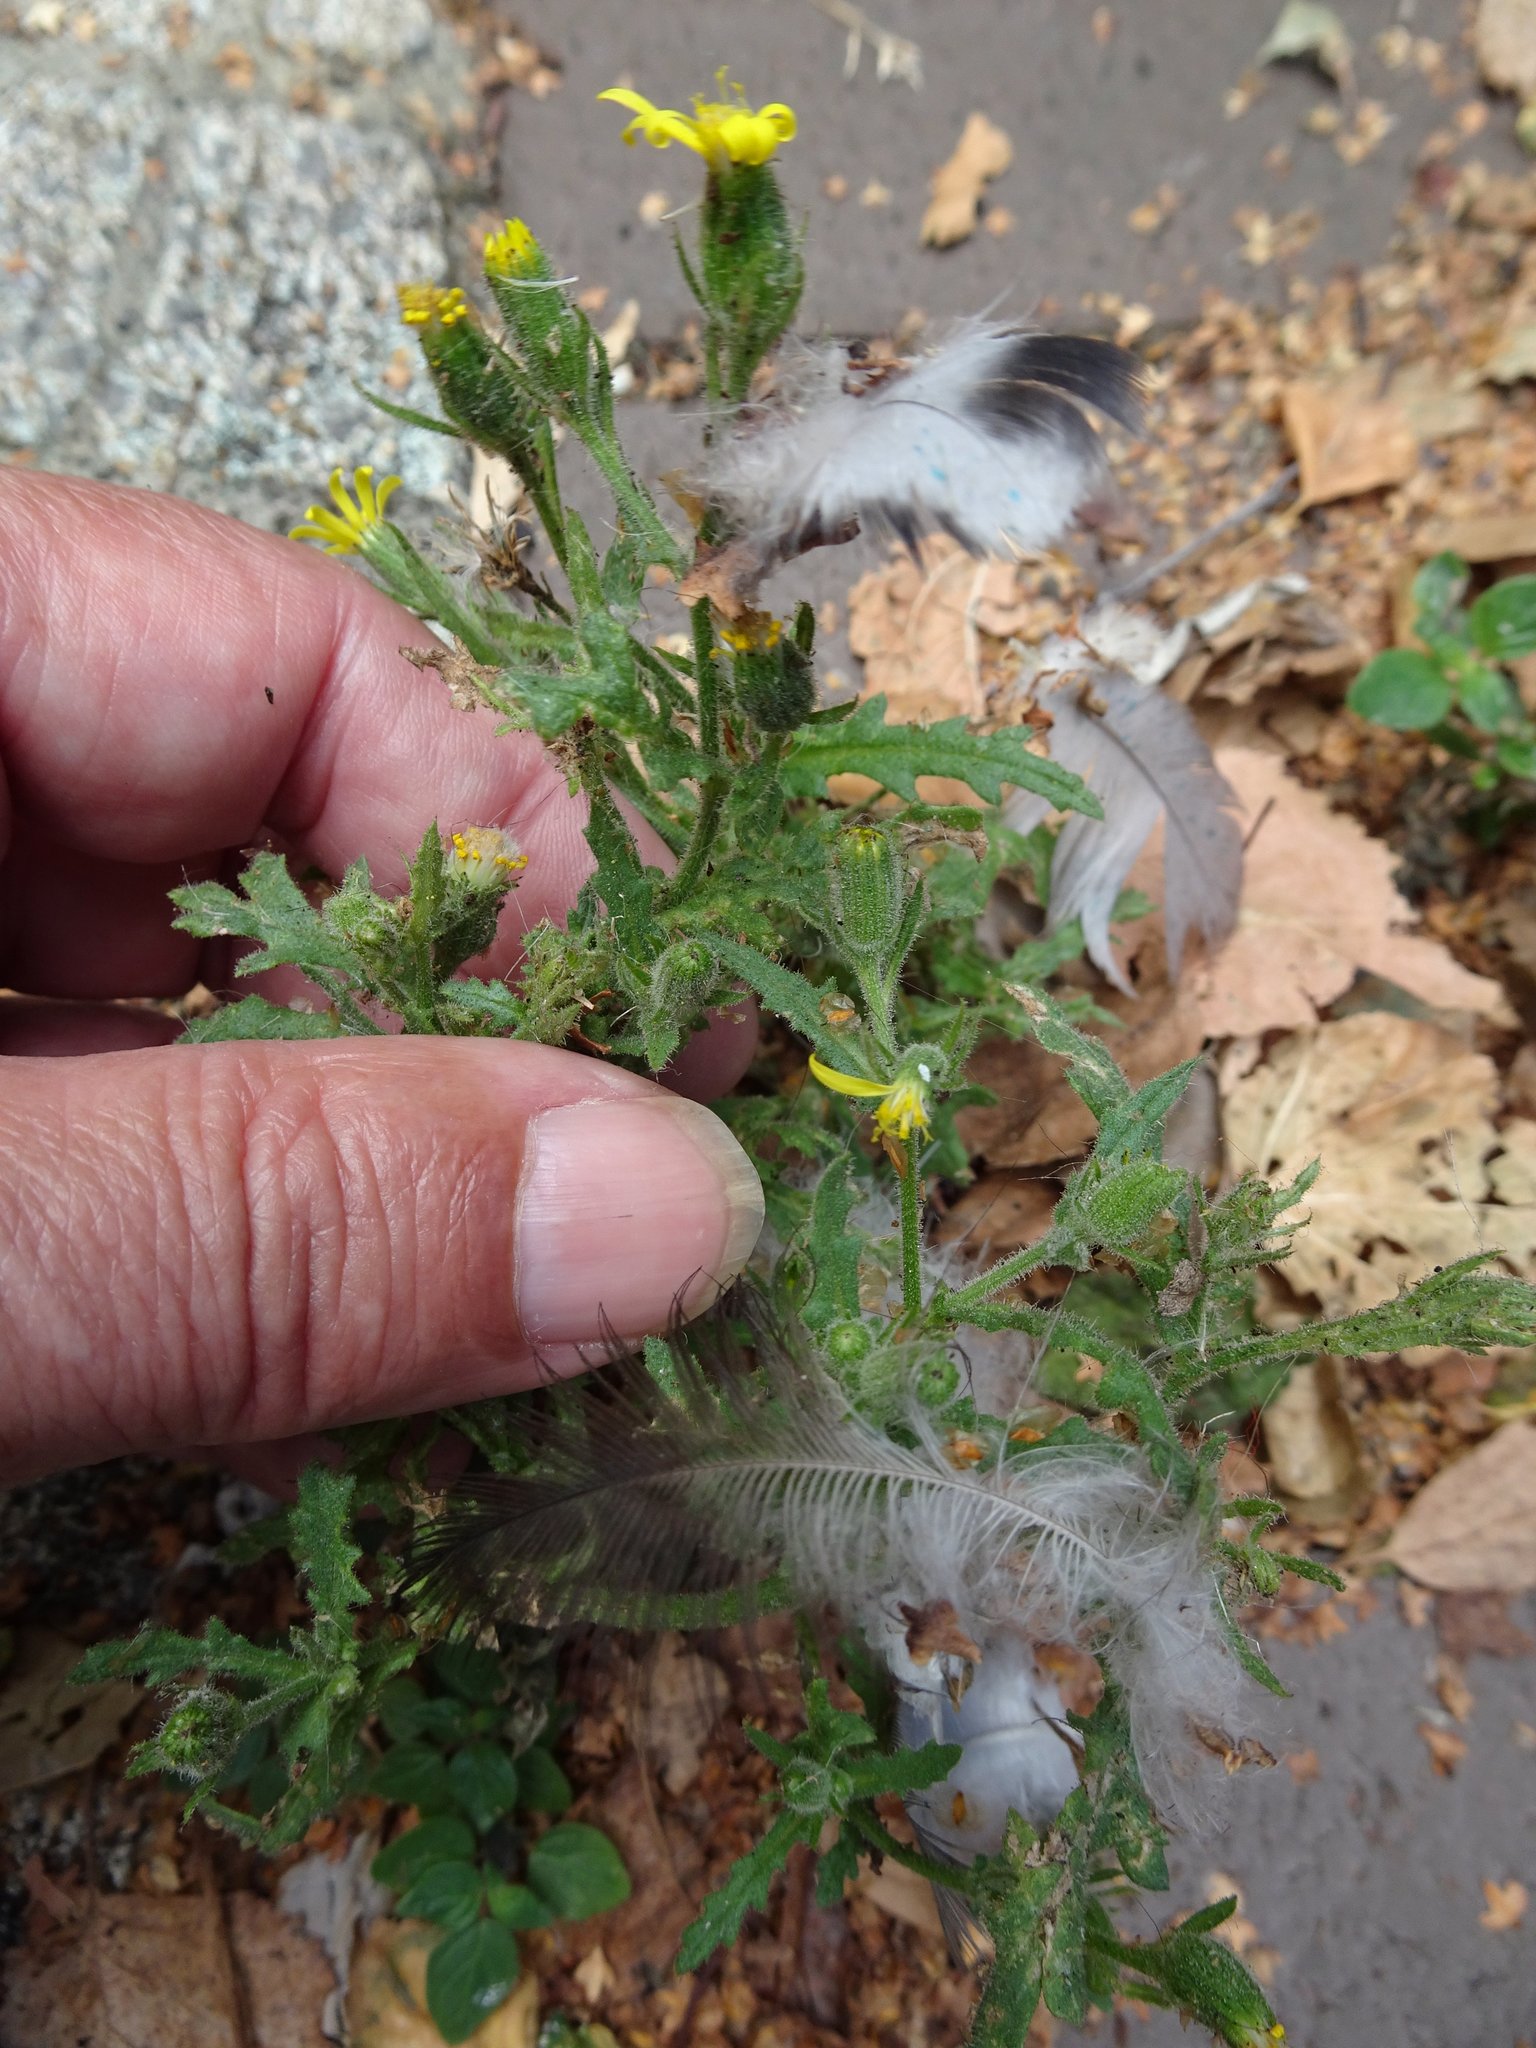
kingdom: Plantae
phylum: Tracheophyta
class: Magnoliopsida
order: Asterales
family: Asteraceae
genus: Senecio
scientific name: Senecio viscosus
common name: Sticky groundsel
